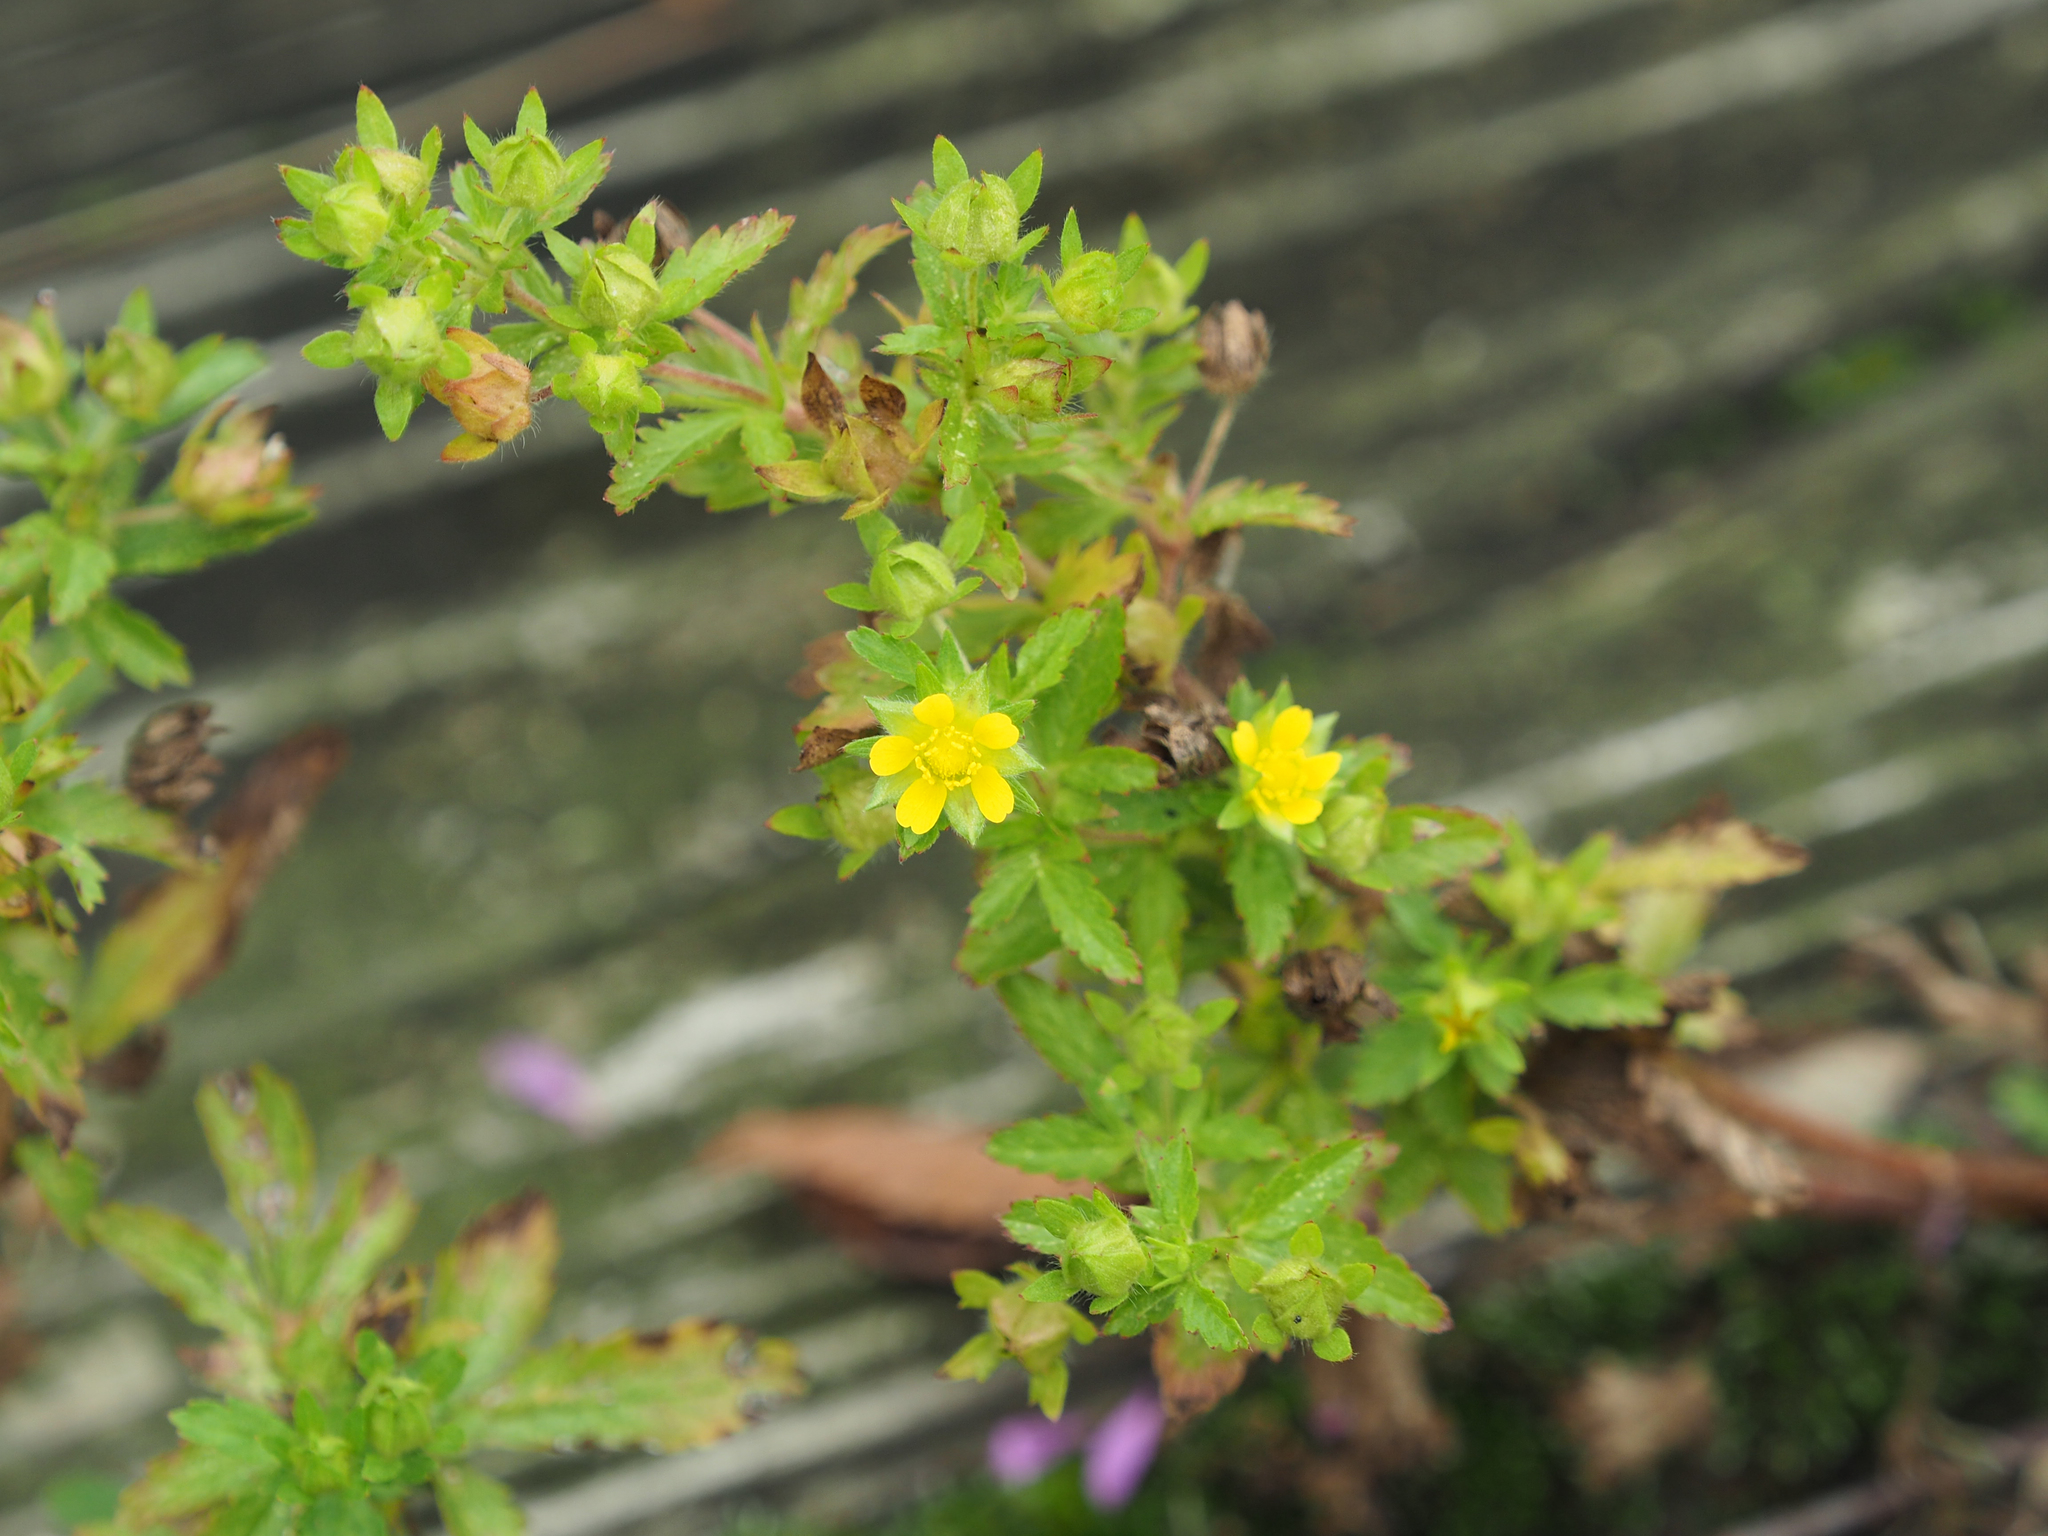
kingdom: Plantae
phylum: Tracheophyta
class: Magnoliopsida
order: Rosales
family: Rosaceae
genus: Potentilla
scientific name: Potentilla norvegica
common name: Ternate-leaved cinquefoil
